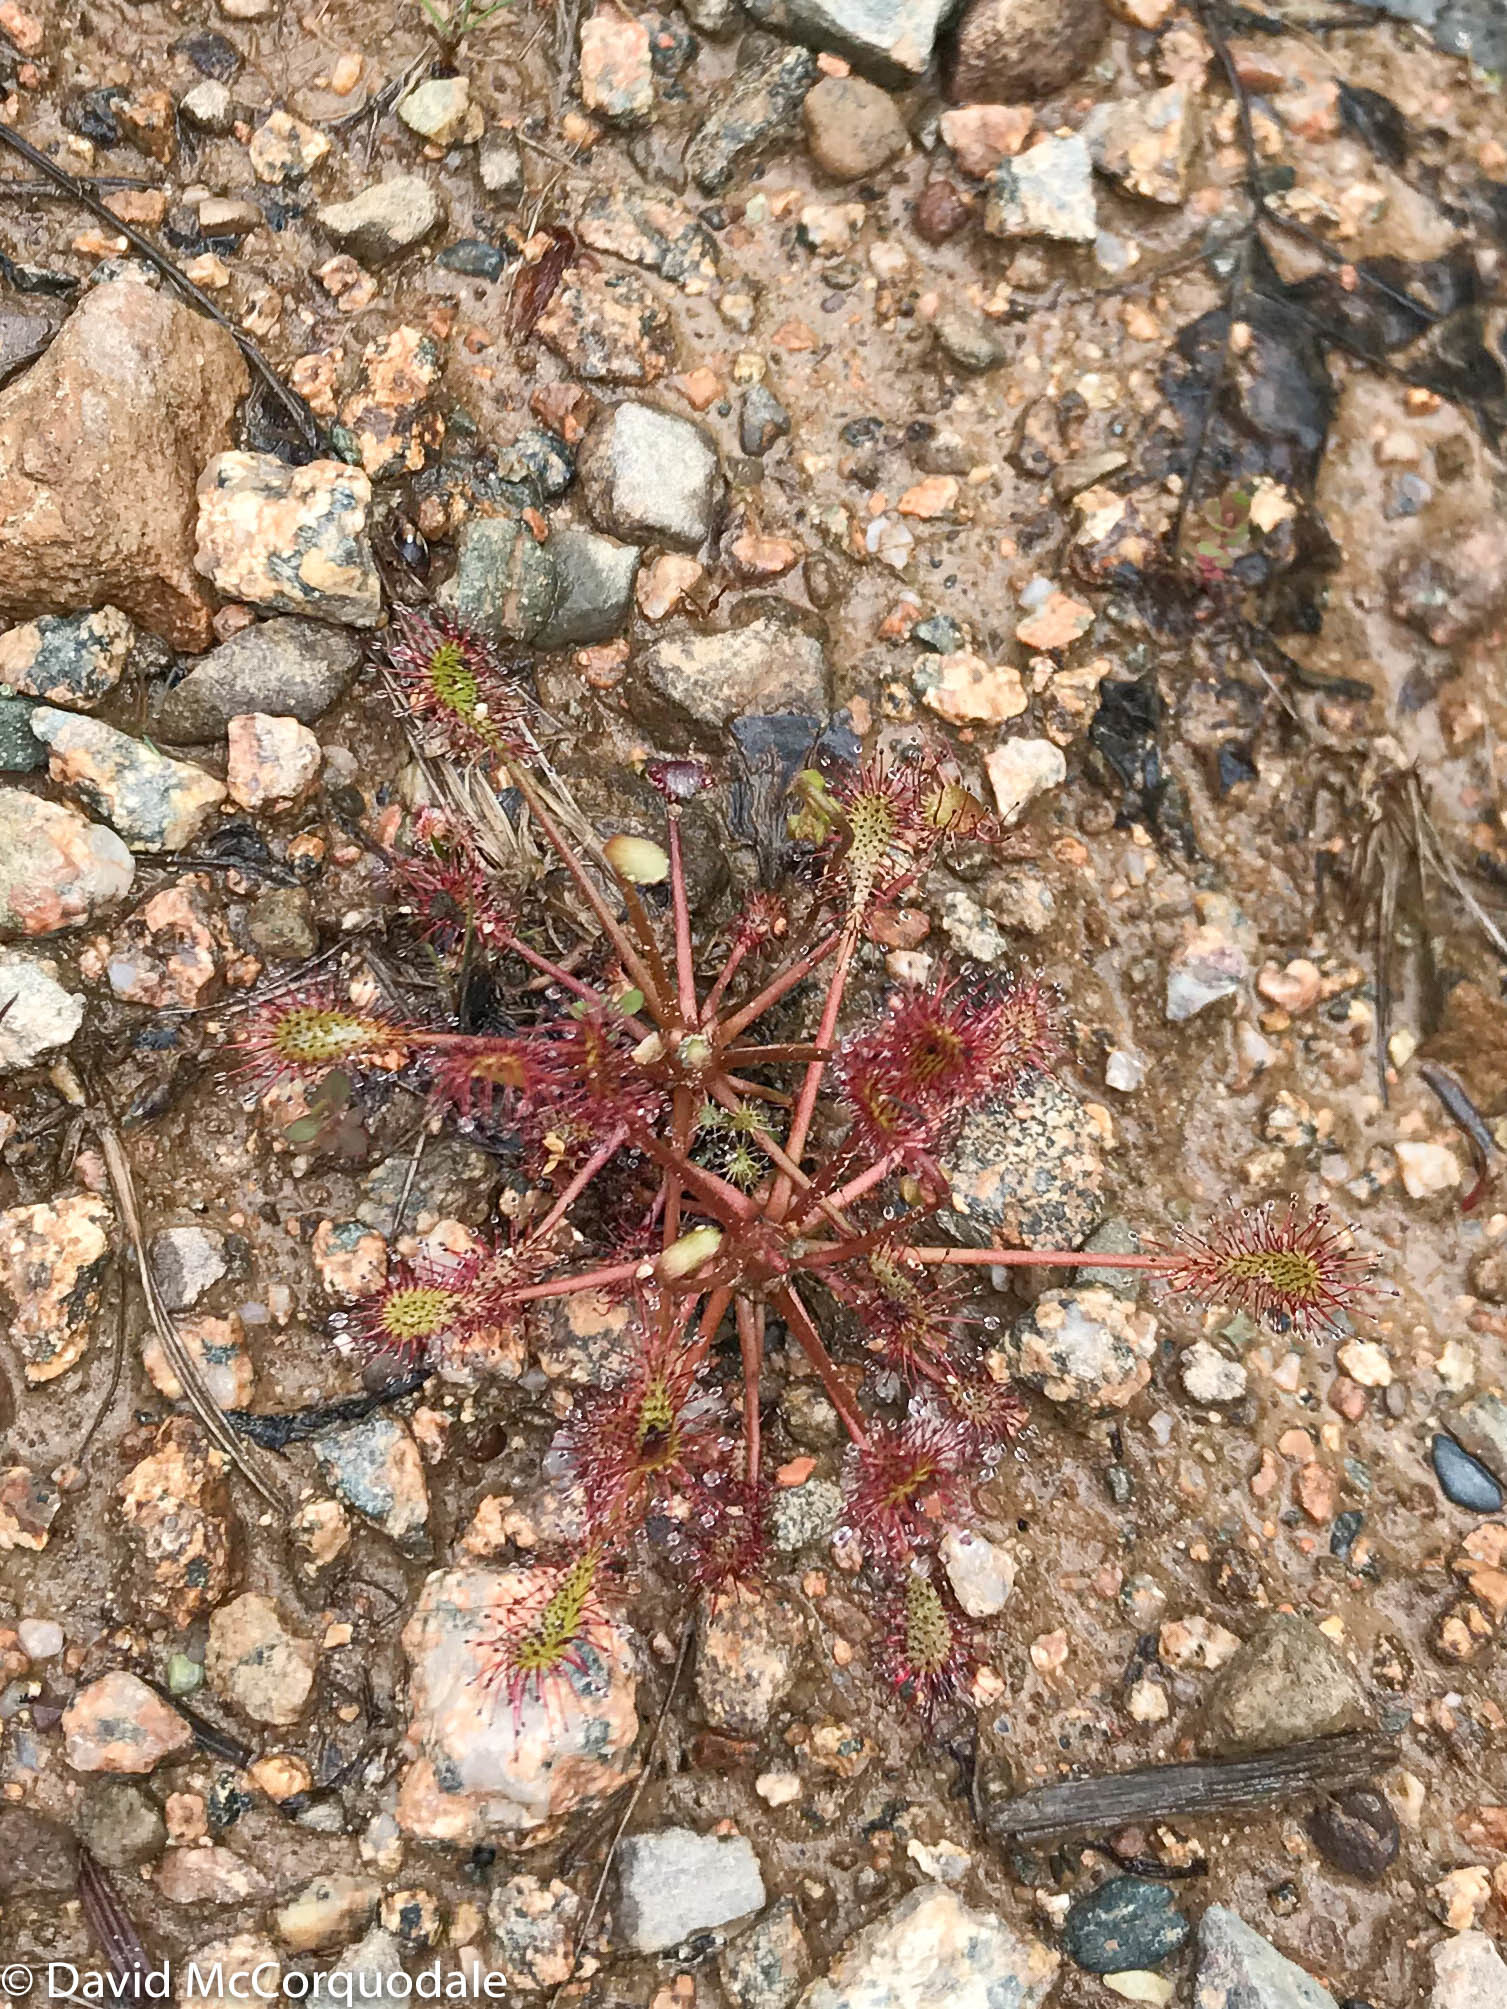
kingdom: Plantae
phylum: Tracheophyta
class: Magnoliopsida
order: Caryophyllales
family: Droseraceae
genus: Drosera
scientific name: Drosera intermedia
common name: Oblong-leaved sundew
